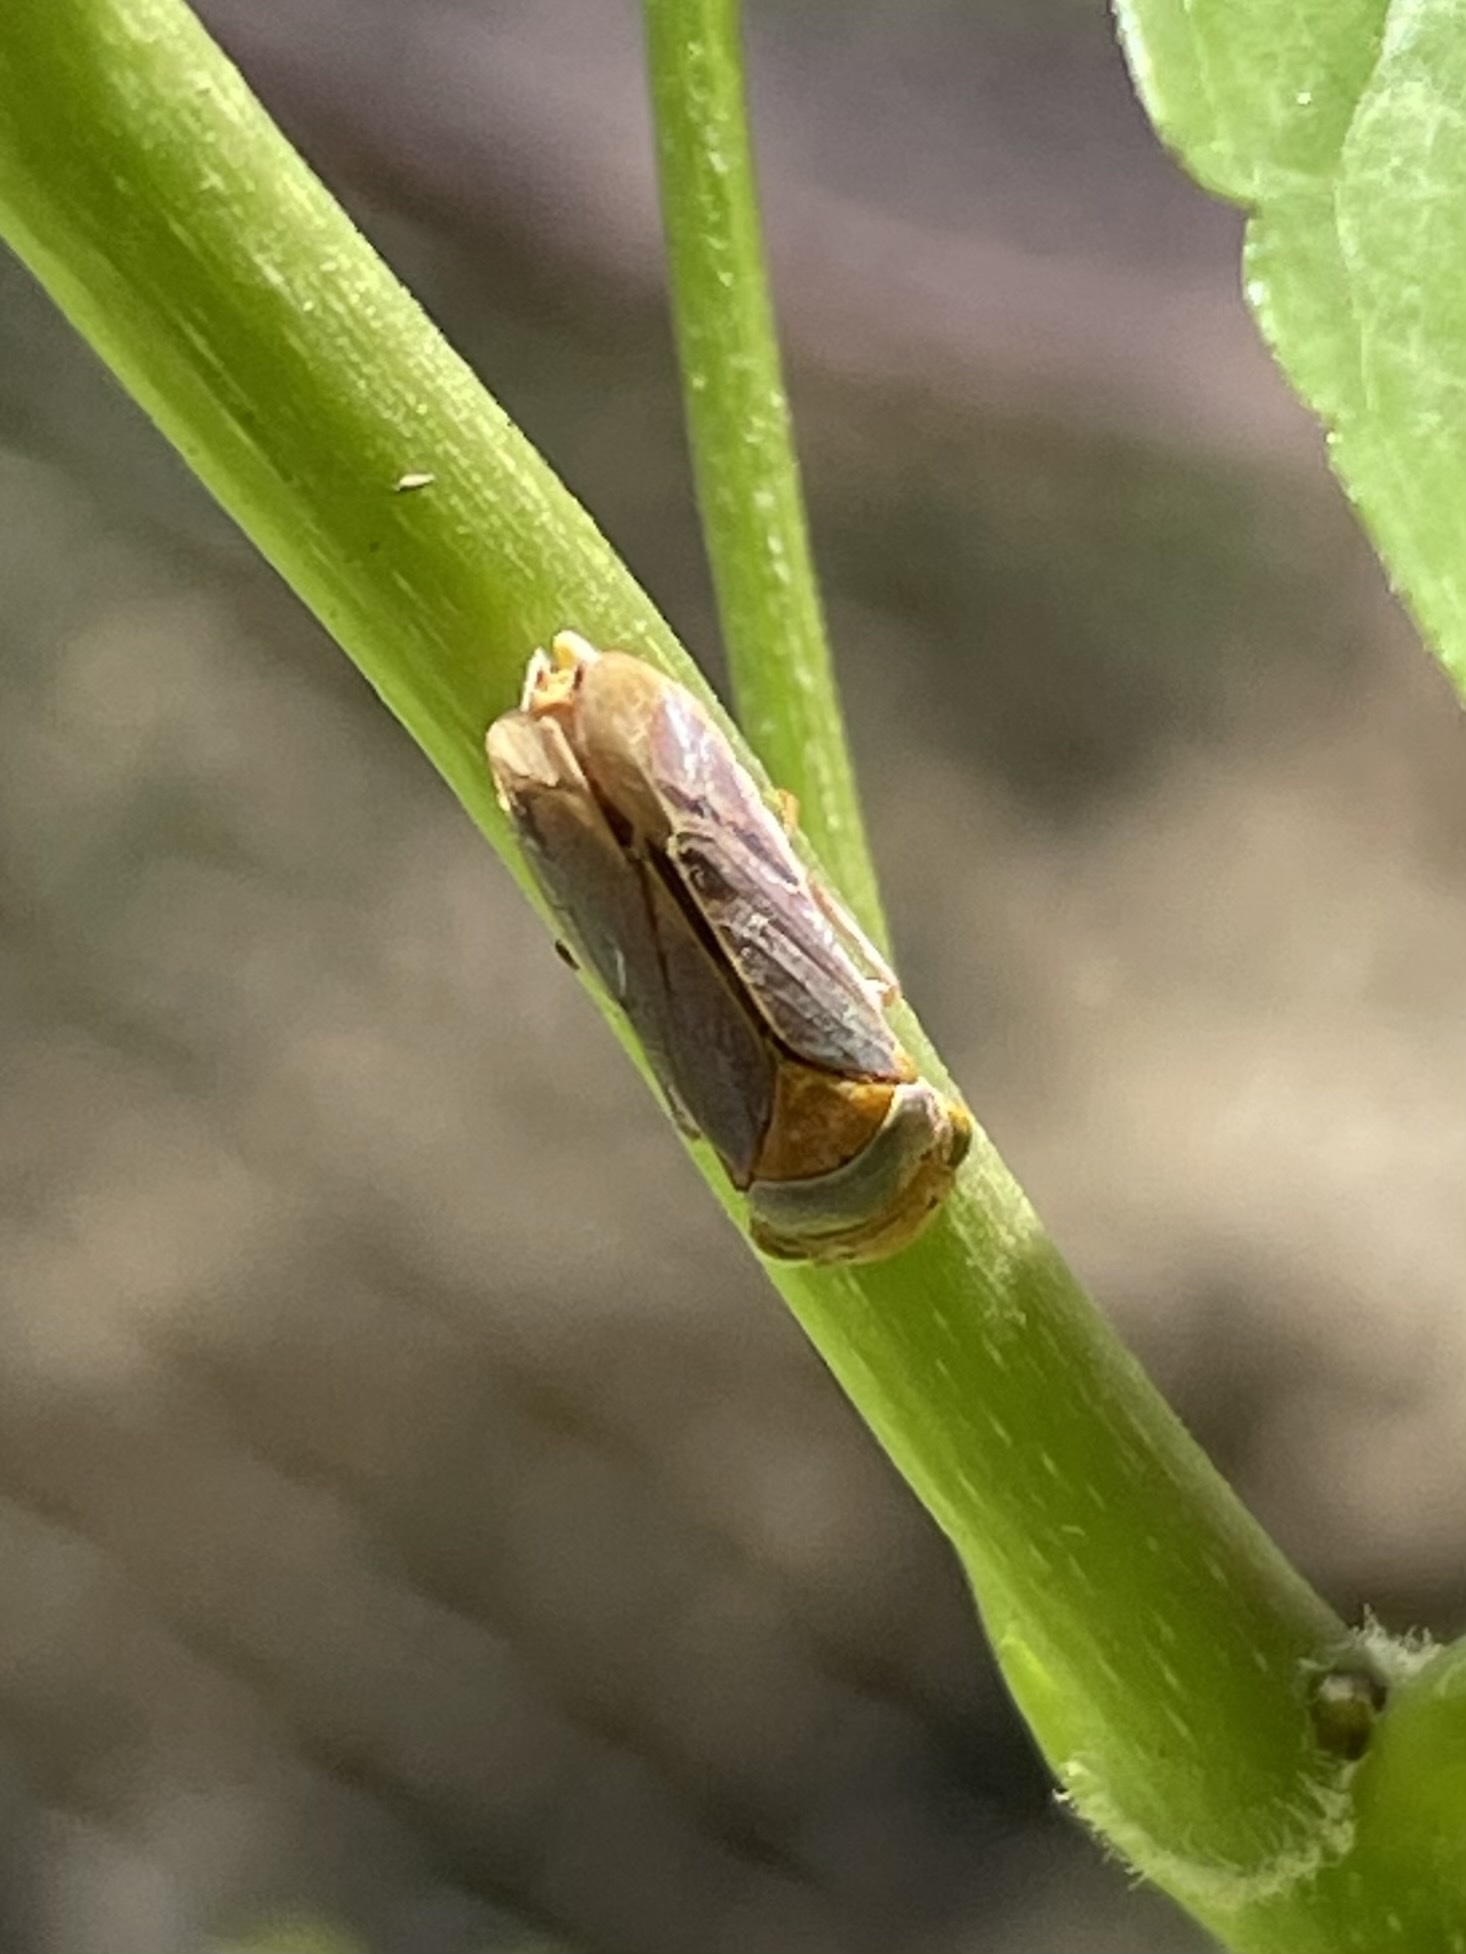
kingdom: Animalia
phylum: Arthropoda
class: Insecta
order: Hemiptera
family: Cicadellidae
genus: Oncometopia
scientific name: Oncometopia hamiltoni
